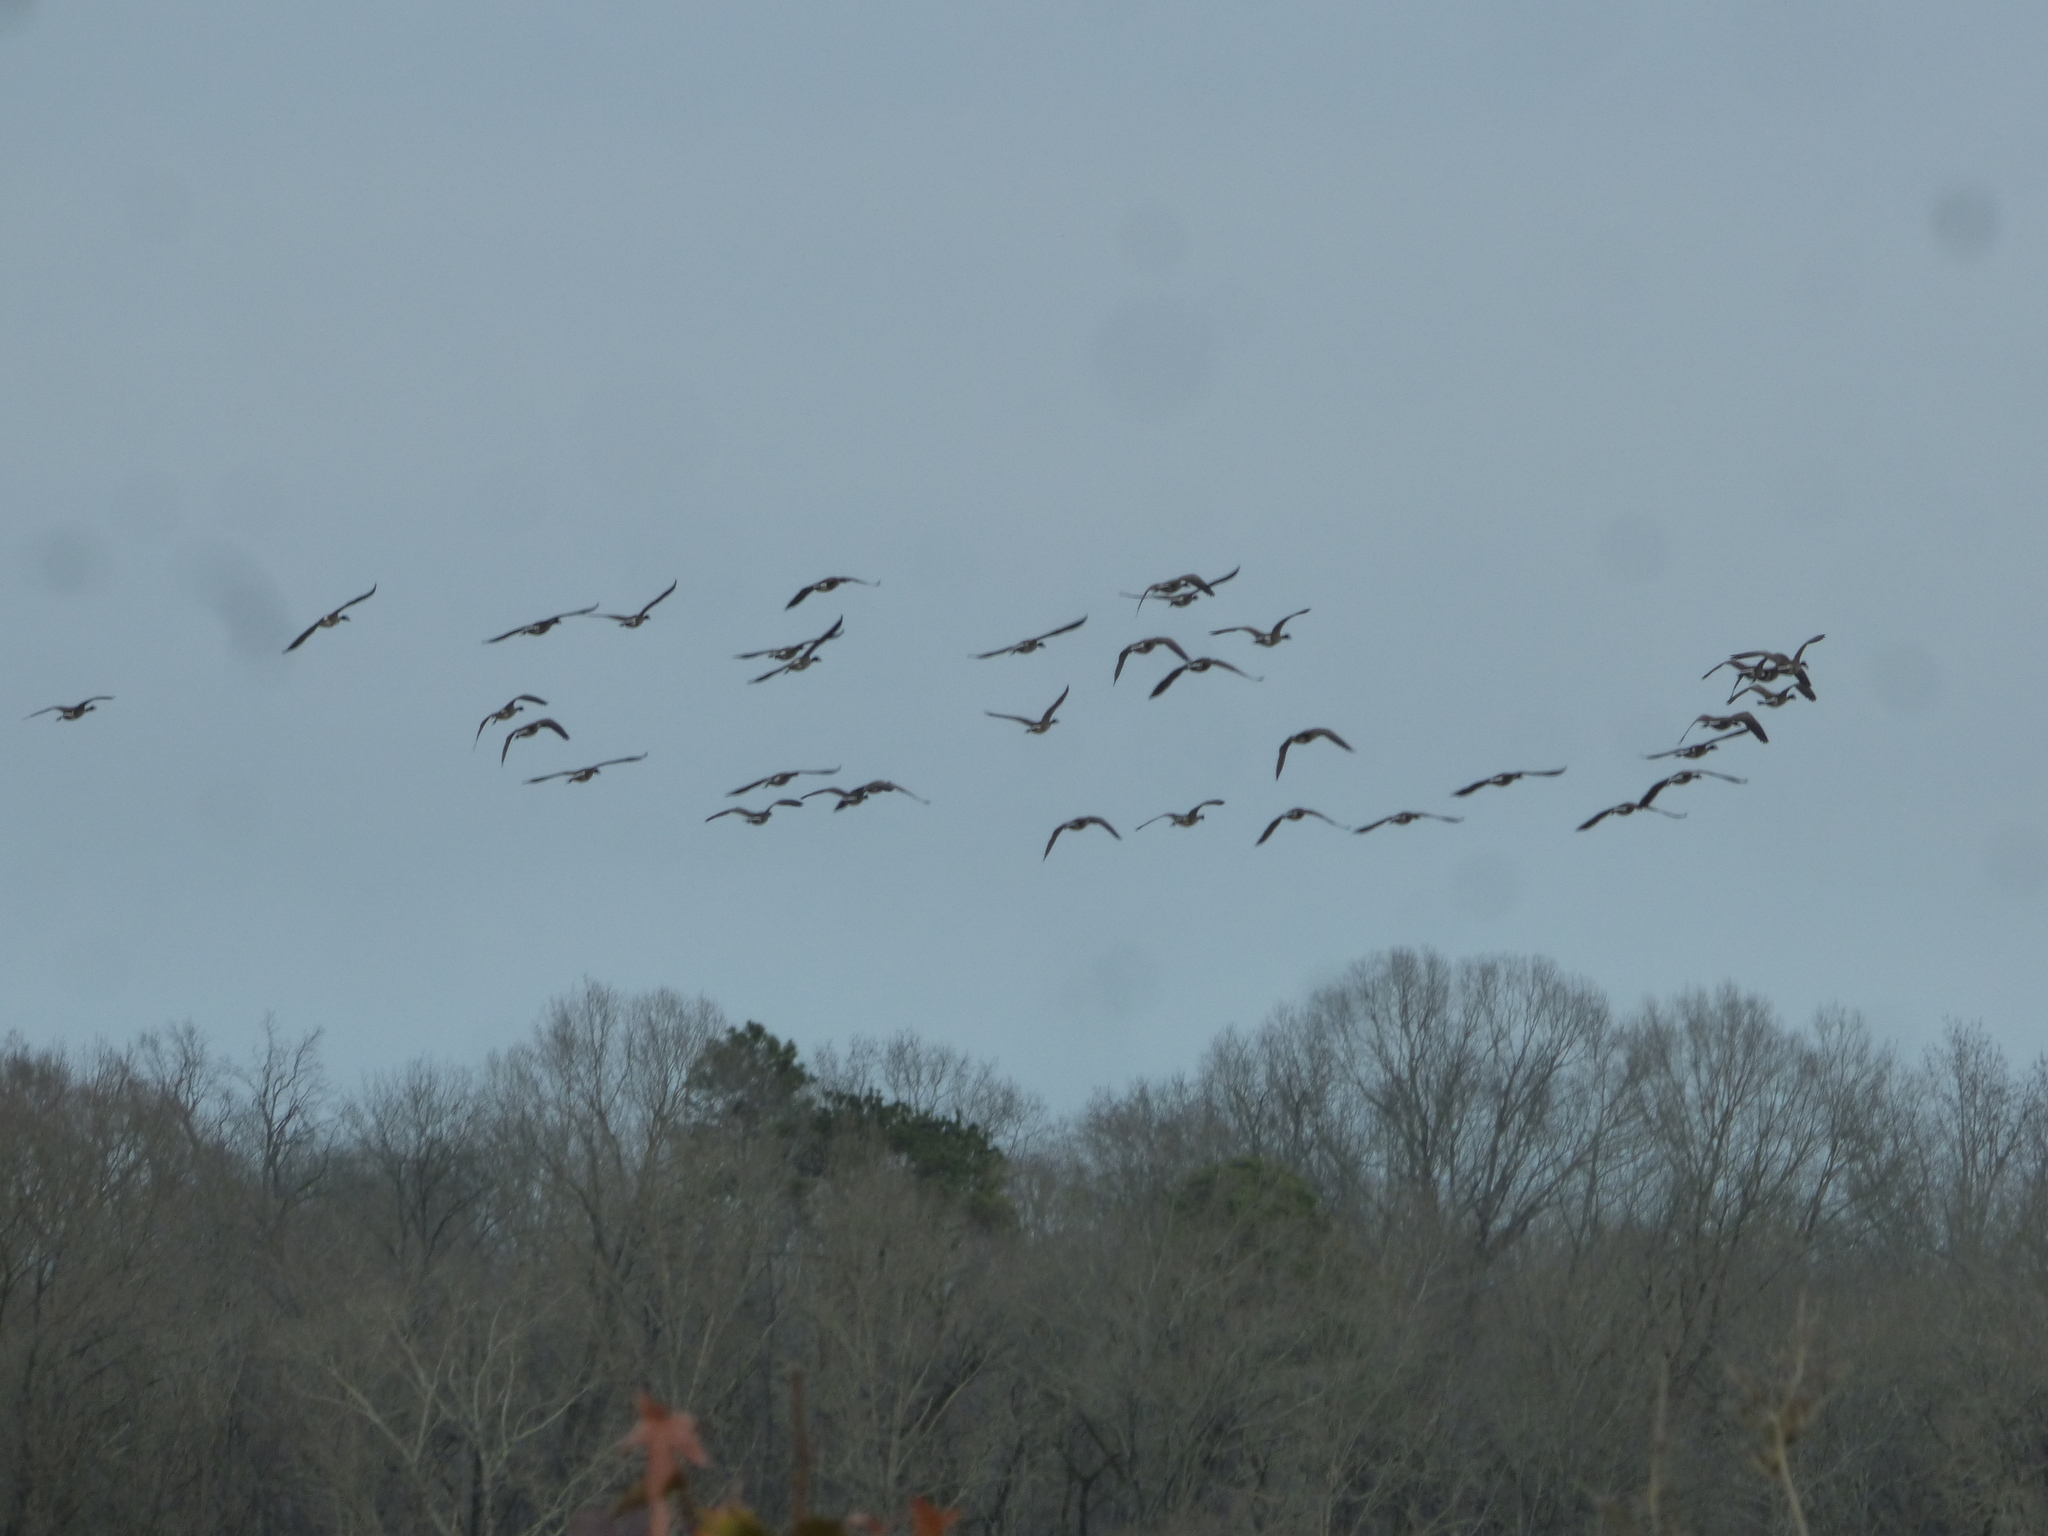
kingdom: Animalia
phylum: Chordata
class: Aves
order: Anseriformes
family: Anatidae
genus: Branta
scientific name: Branta canadensis
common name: Canada goose
